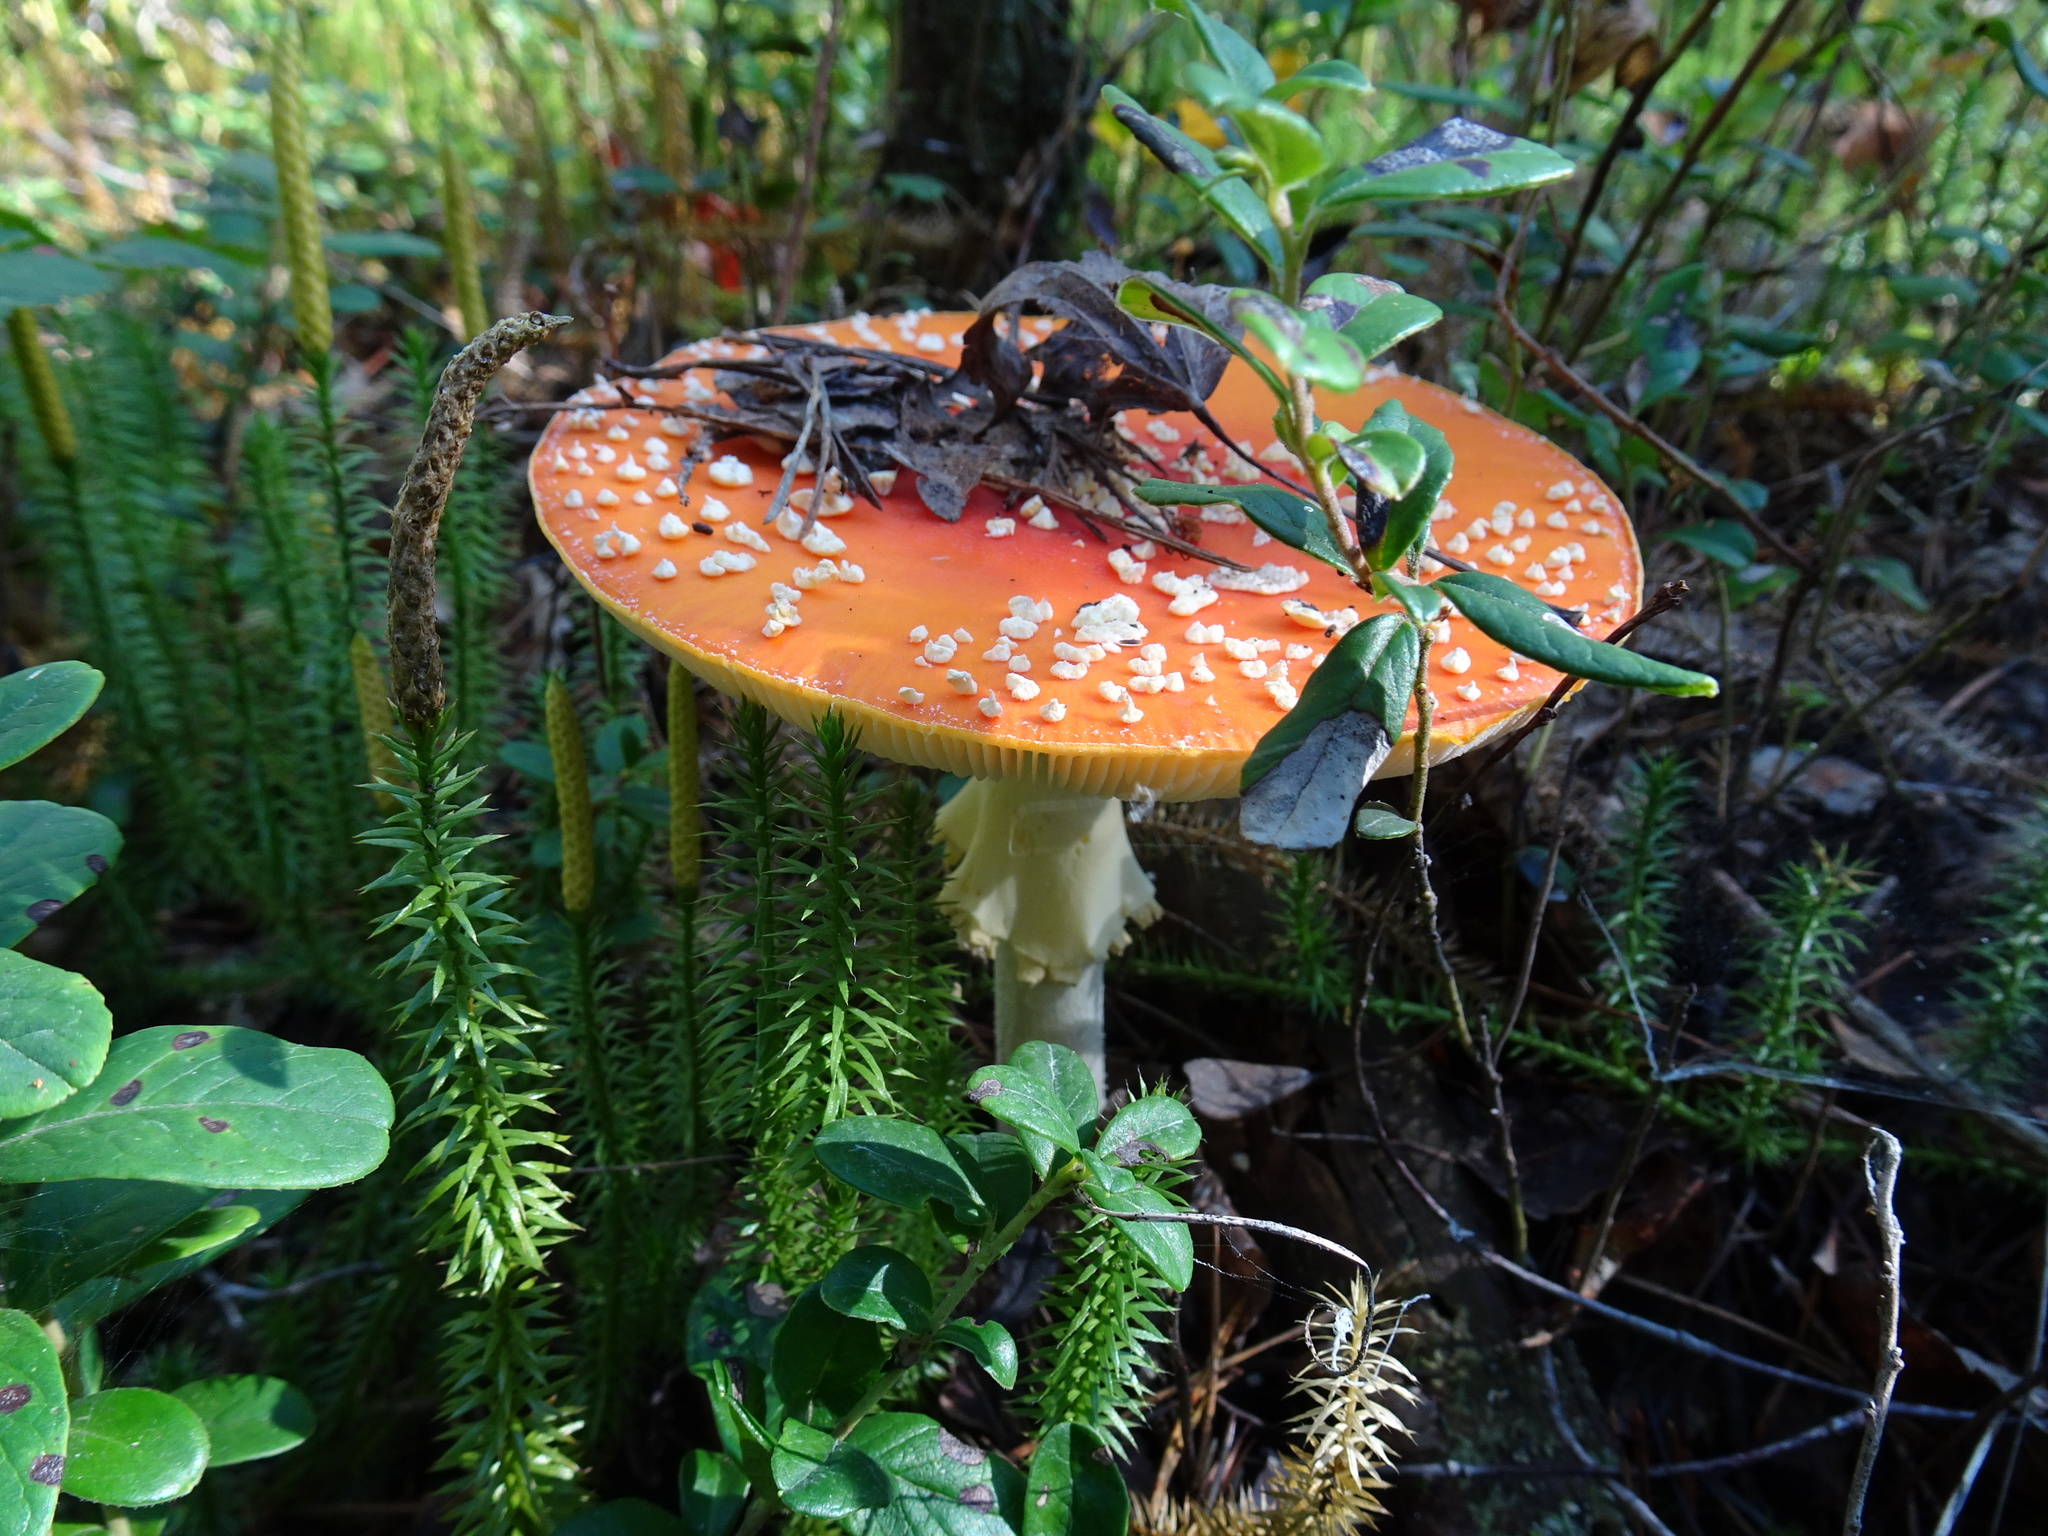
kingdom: Fungi
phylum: Basidiomycota
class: Agaricomycetes
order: Agaricales
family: Amanitaceae
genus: Amanita
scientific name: Amanita muscaria
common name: Fly agaric
